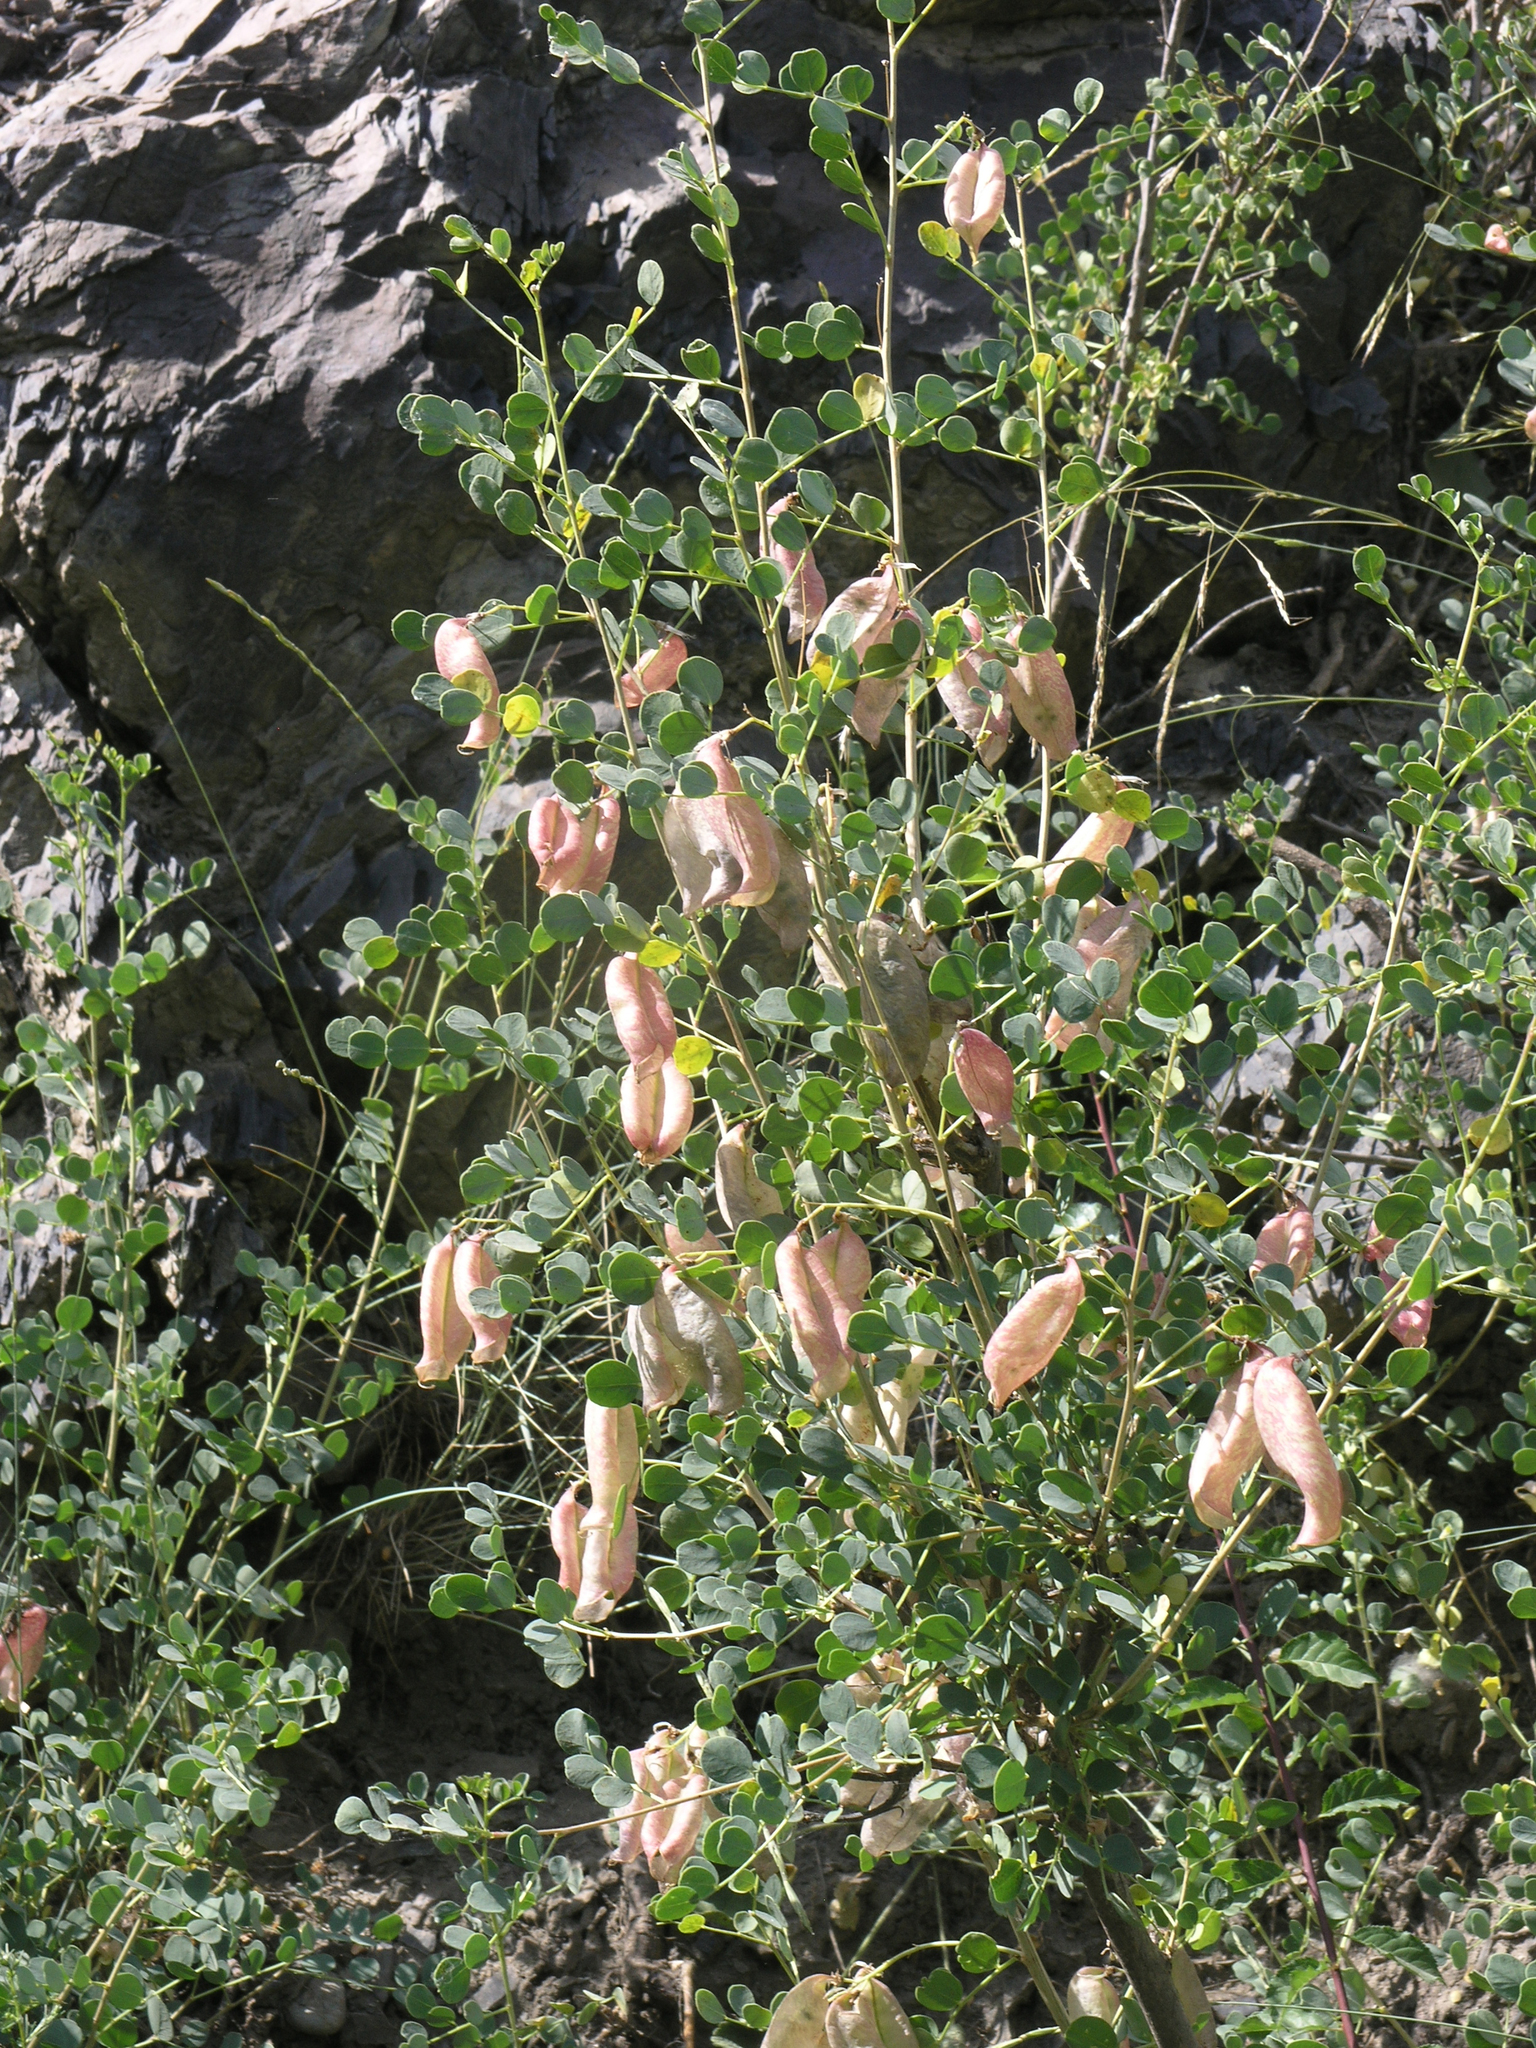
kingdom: Plantae
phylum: Tracheophyta
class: Magnoliopsida
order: Fabales
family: Fabaceae
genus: Colutea
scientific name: Colutea orientalis
